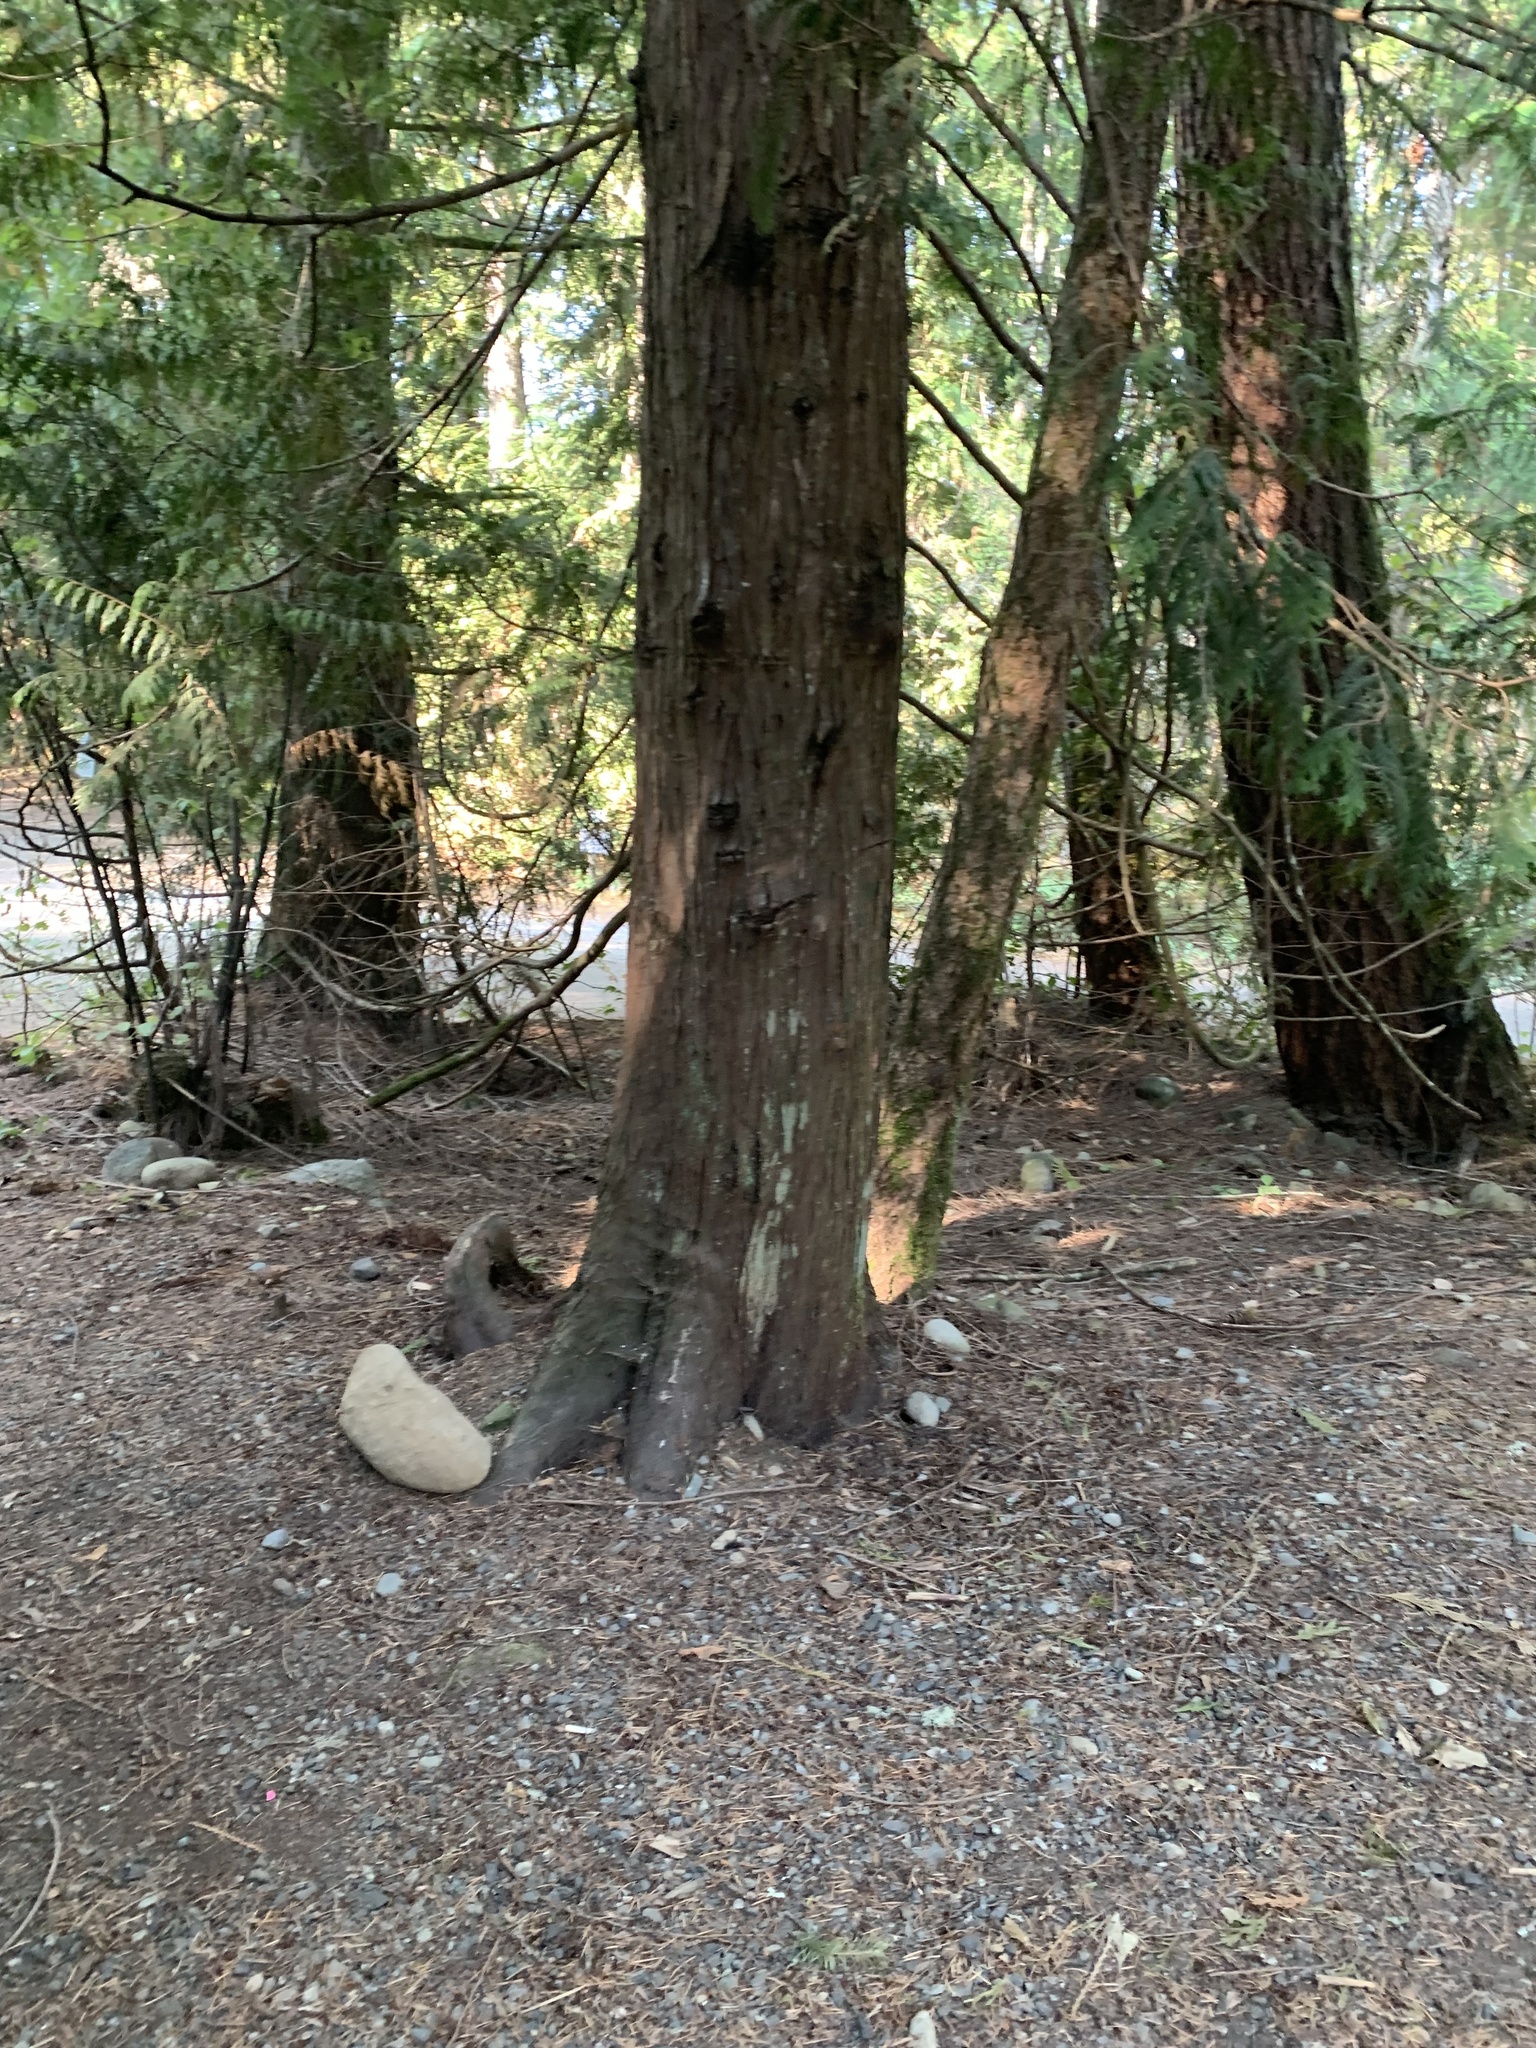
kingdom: Plantae
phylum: Tracheophyta
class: Pinopsida
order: Pinales
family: Cupressaceae
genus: Thuja
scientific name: Thuja plicata
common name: Western red-cedar
